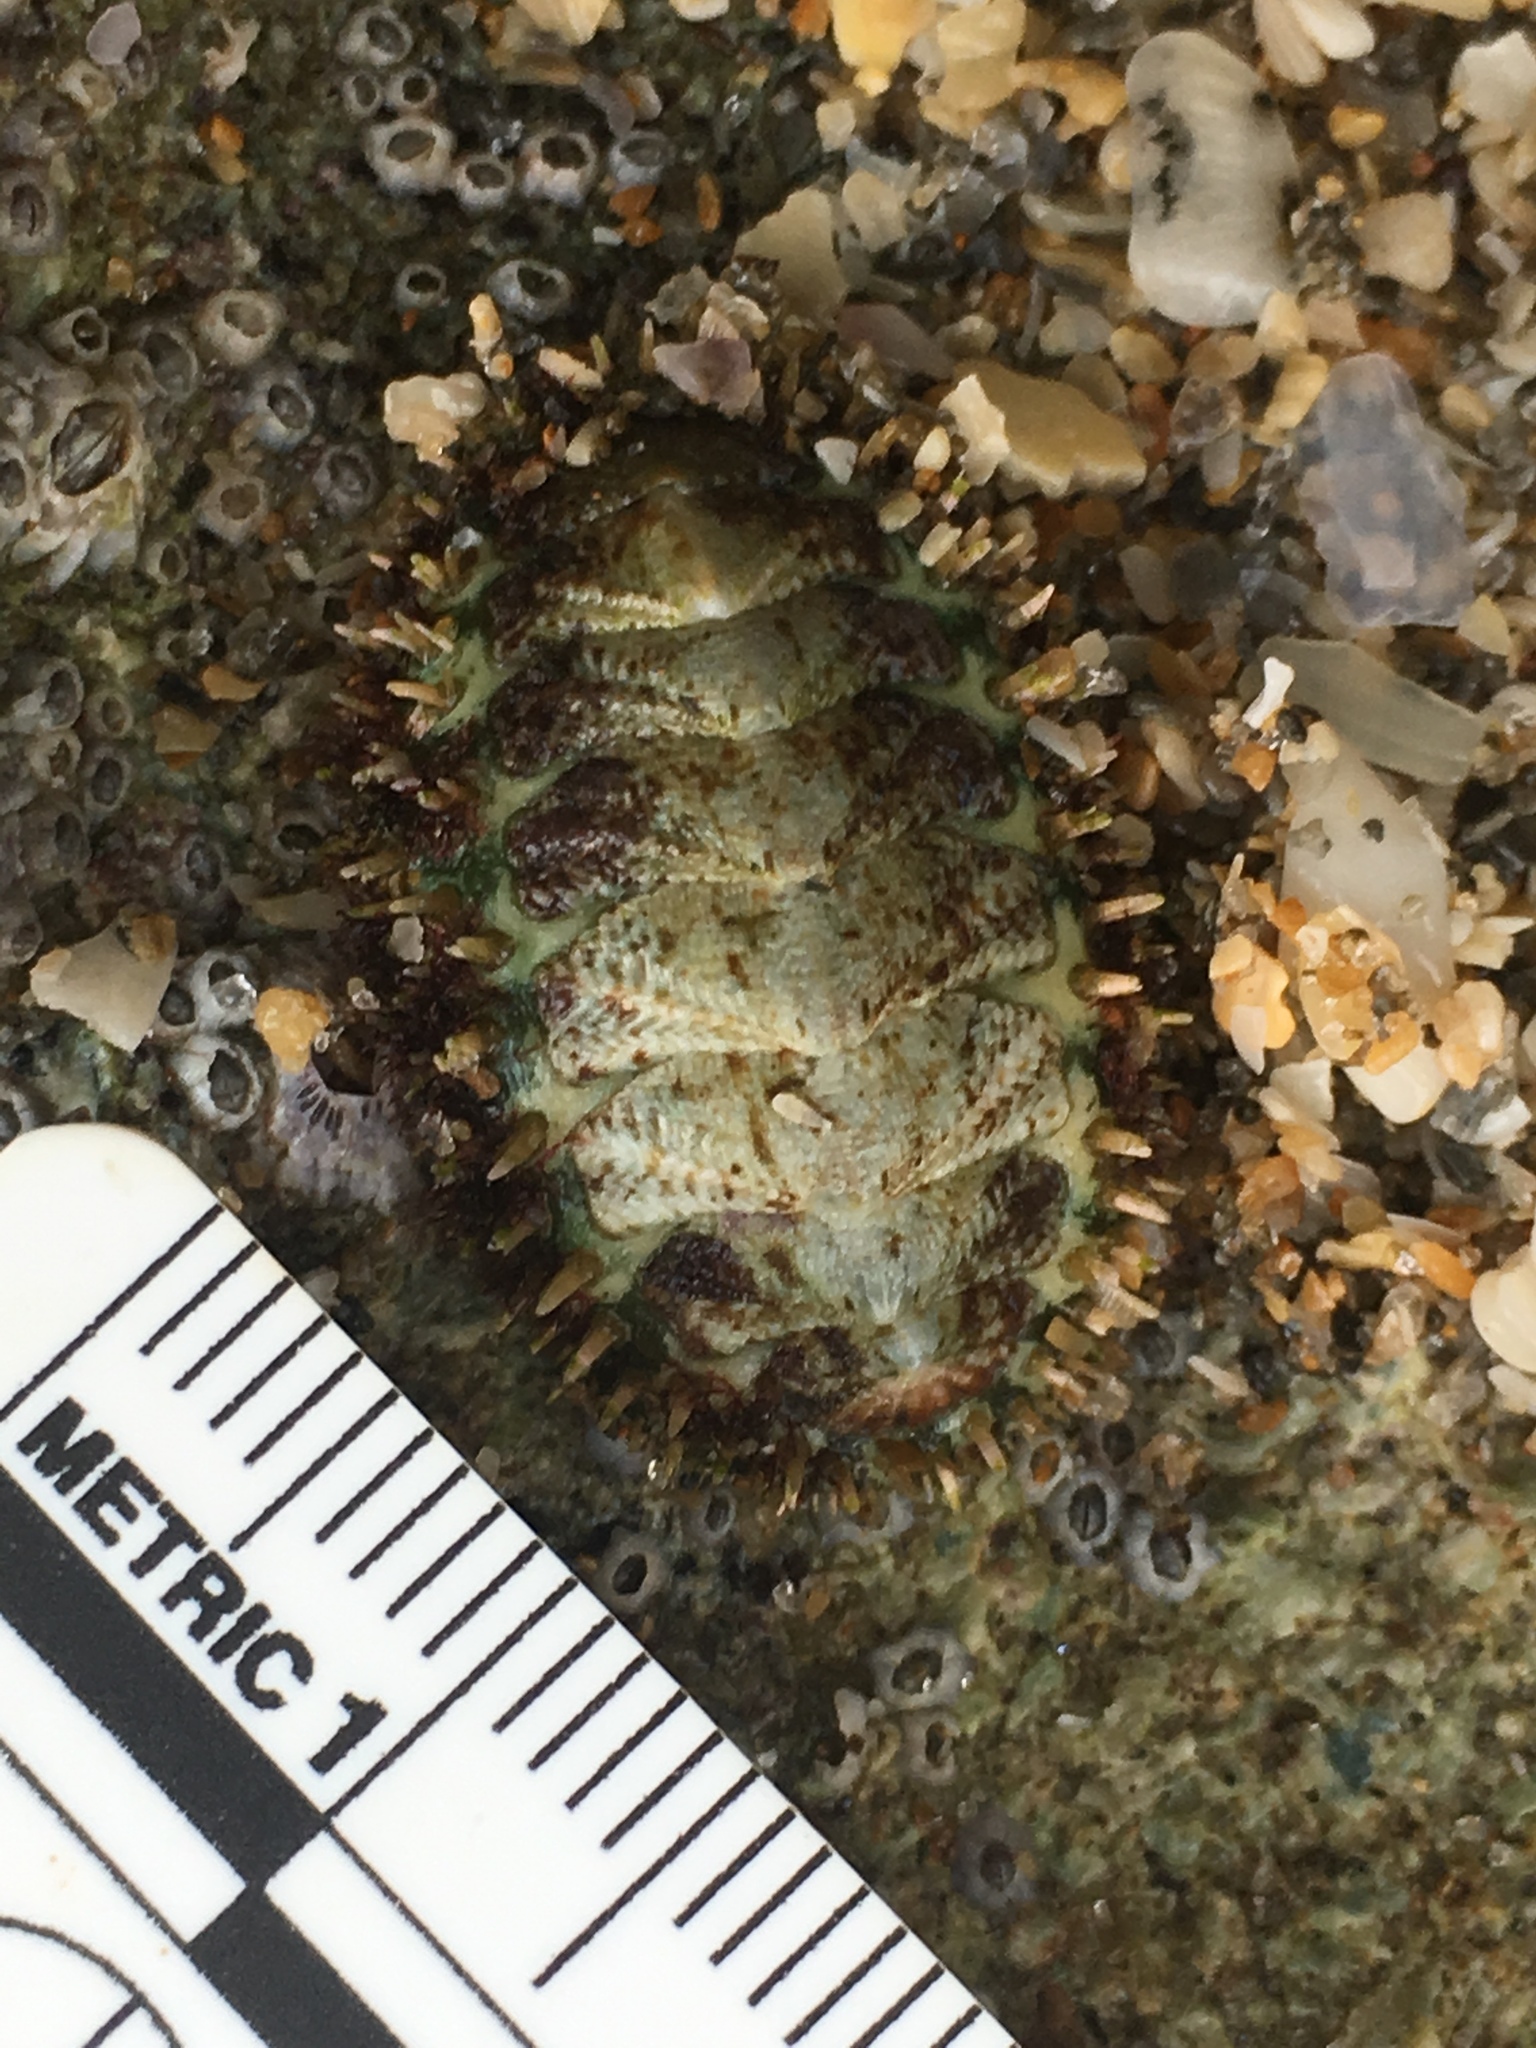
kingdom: Animalia
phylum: Mollusca
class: Polyplacophora
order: Chitonida
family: Tonicellidae
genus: Ceratozona
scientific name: Ceratozona squalida
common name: Rough-girdled chiton
